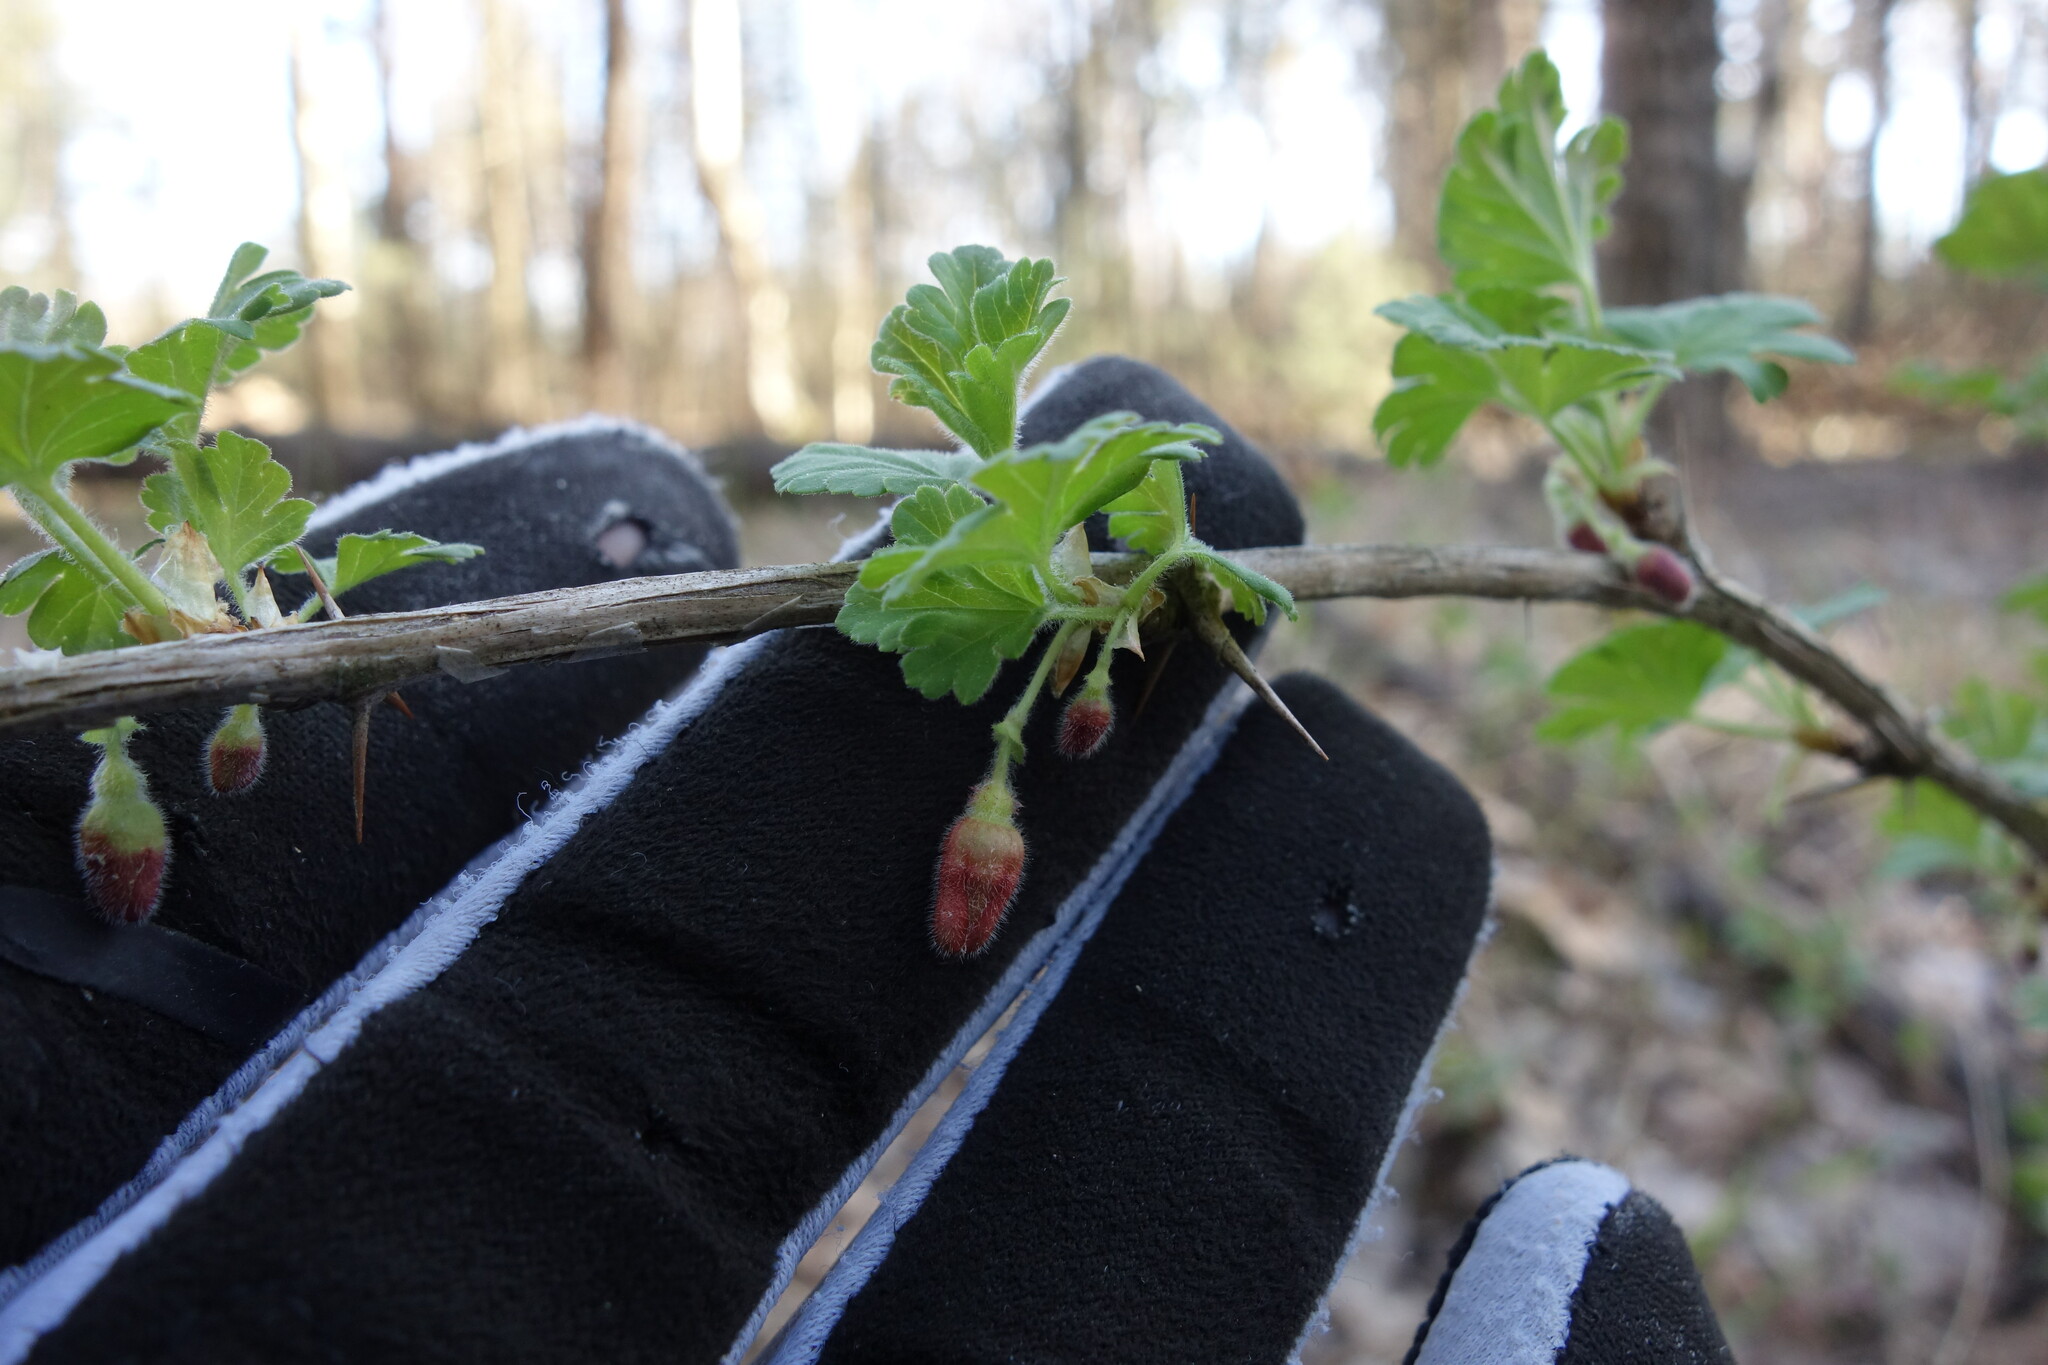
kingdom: Plantae
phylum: Tracheophyta
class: Magnoliopsida
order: Saxifragales
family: Grossulariaceae
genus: Ribes
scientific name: Ribes uva-crispa
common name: Gooseberry
